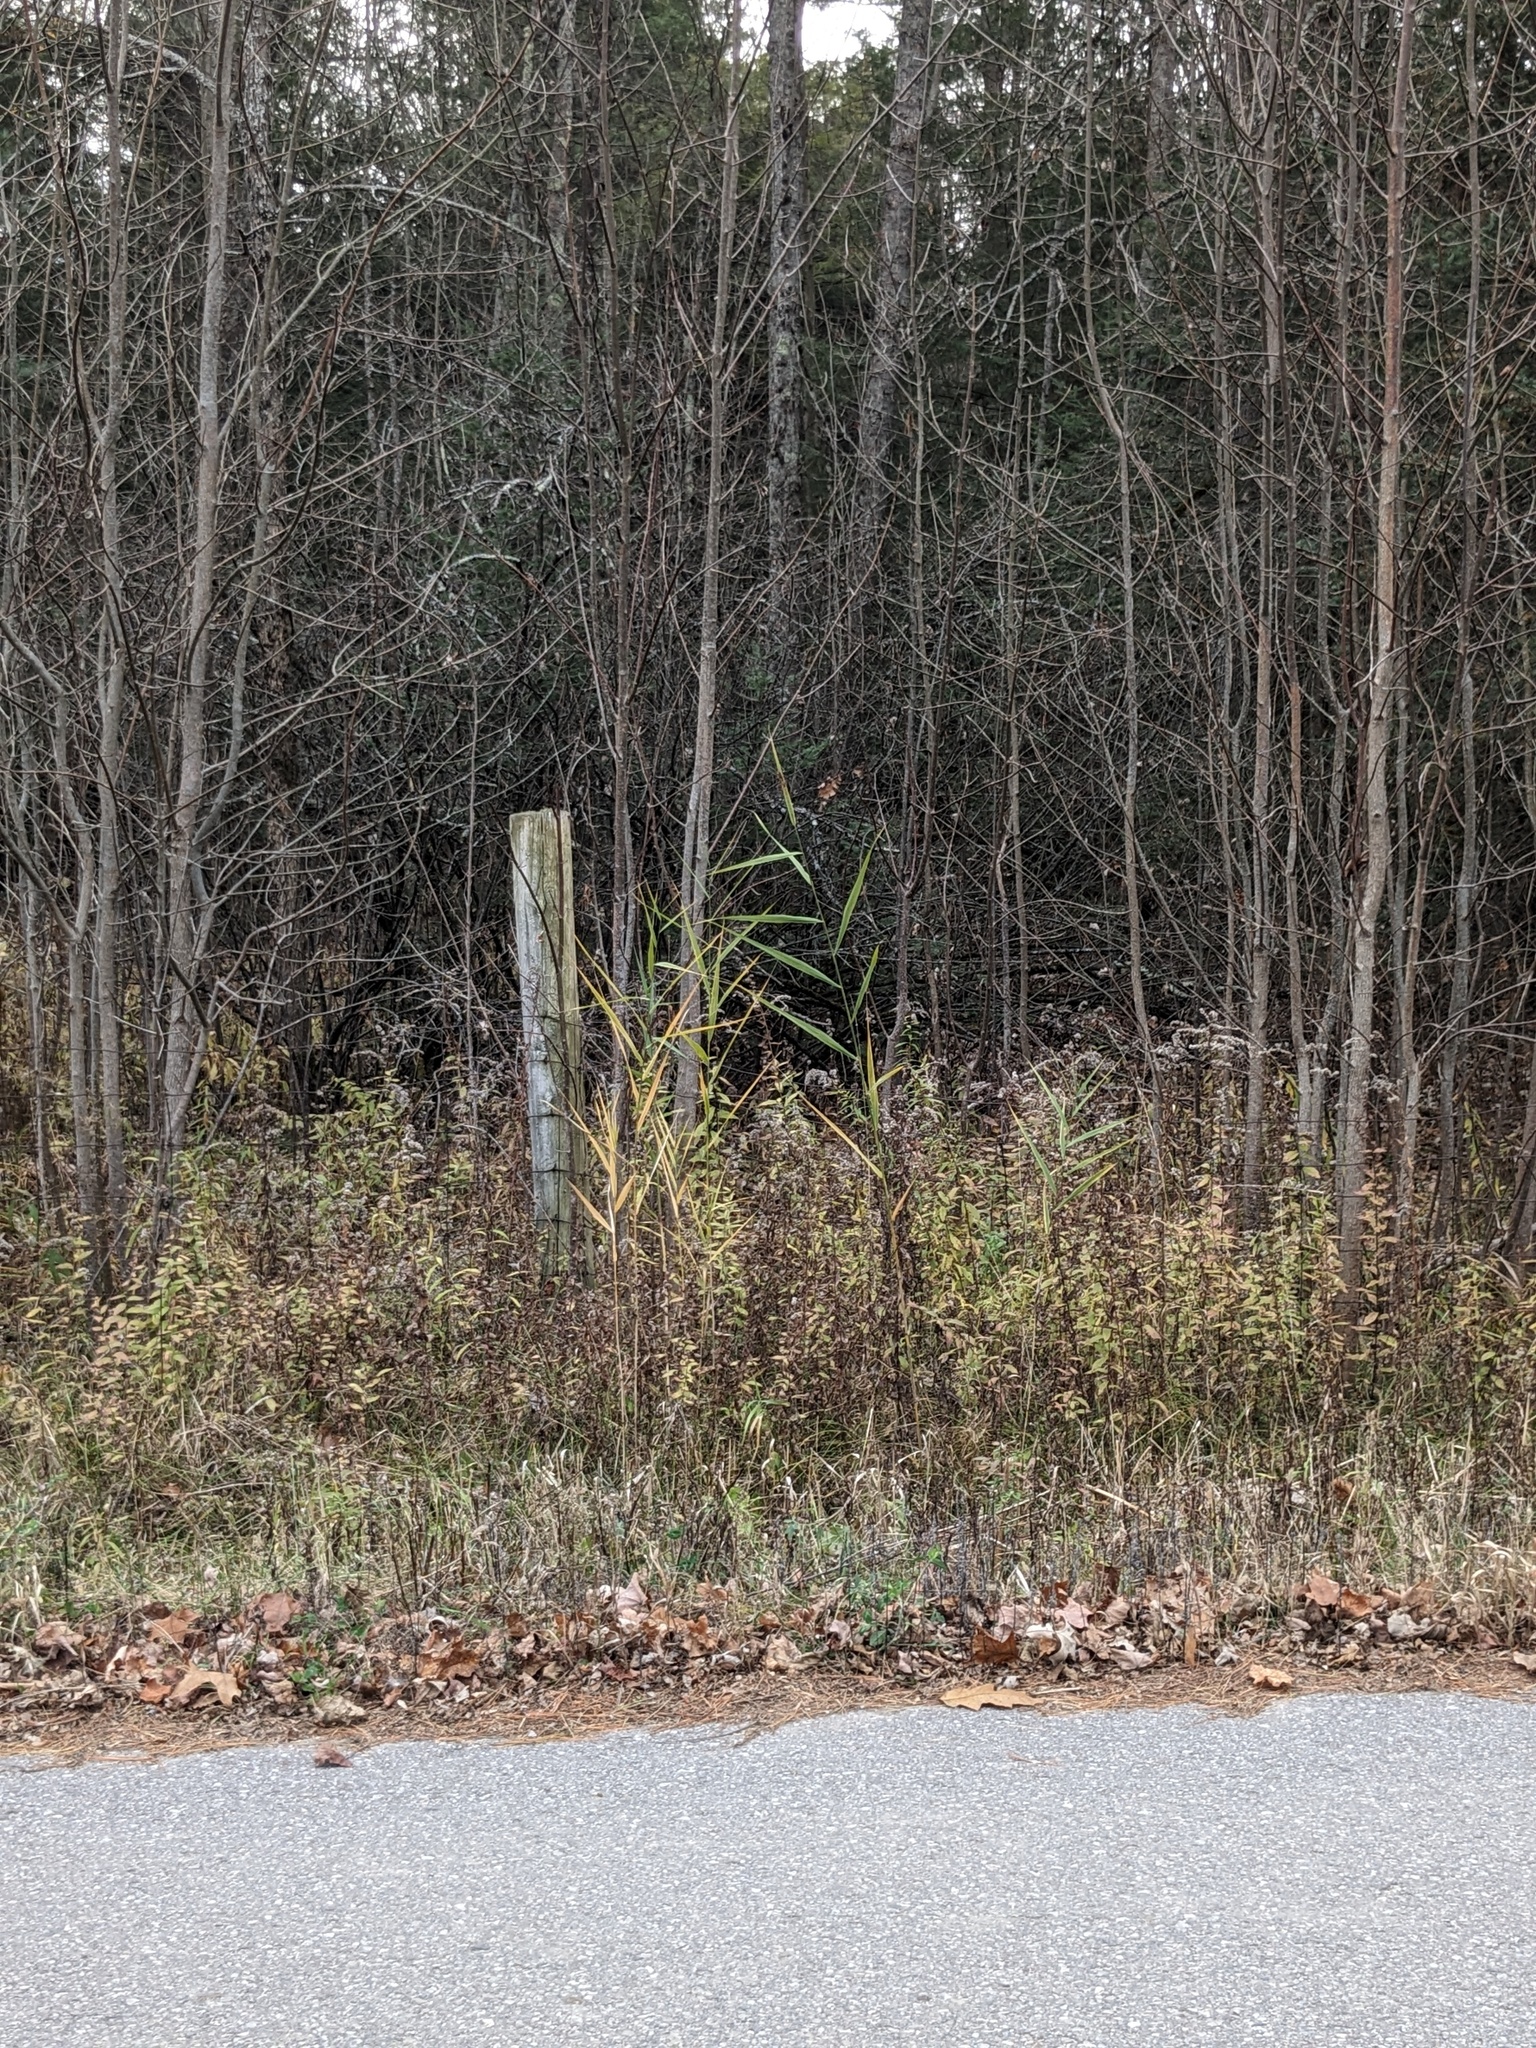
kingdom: Plantae
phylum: Tracheophyta
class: Liliopsida
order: Poales
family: Poaceae
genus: Phragmites
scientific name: Phragmites australis
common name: Common reed
